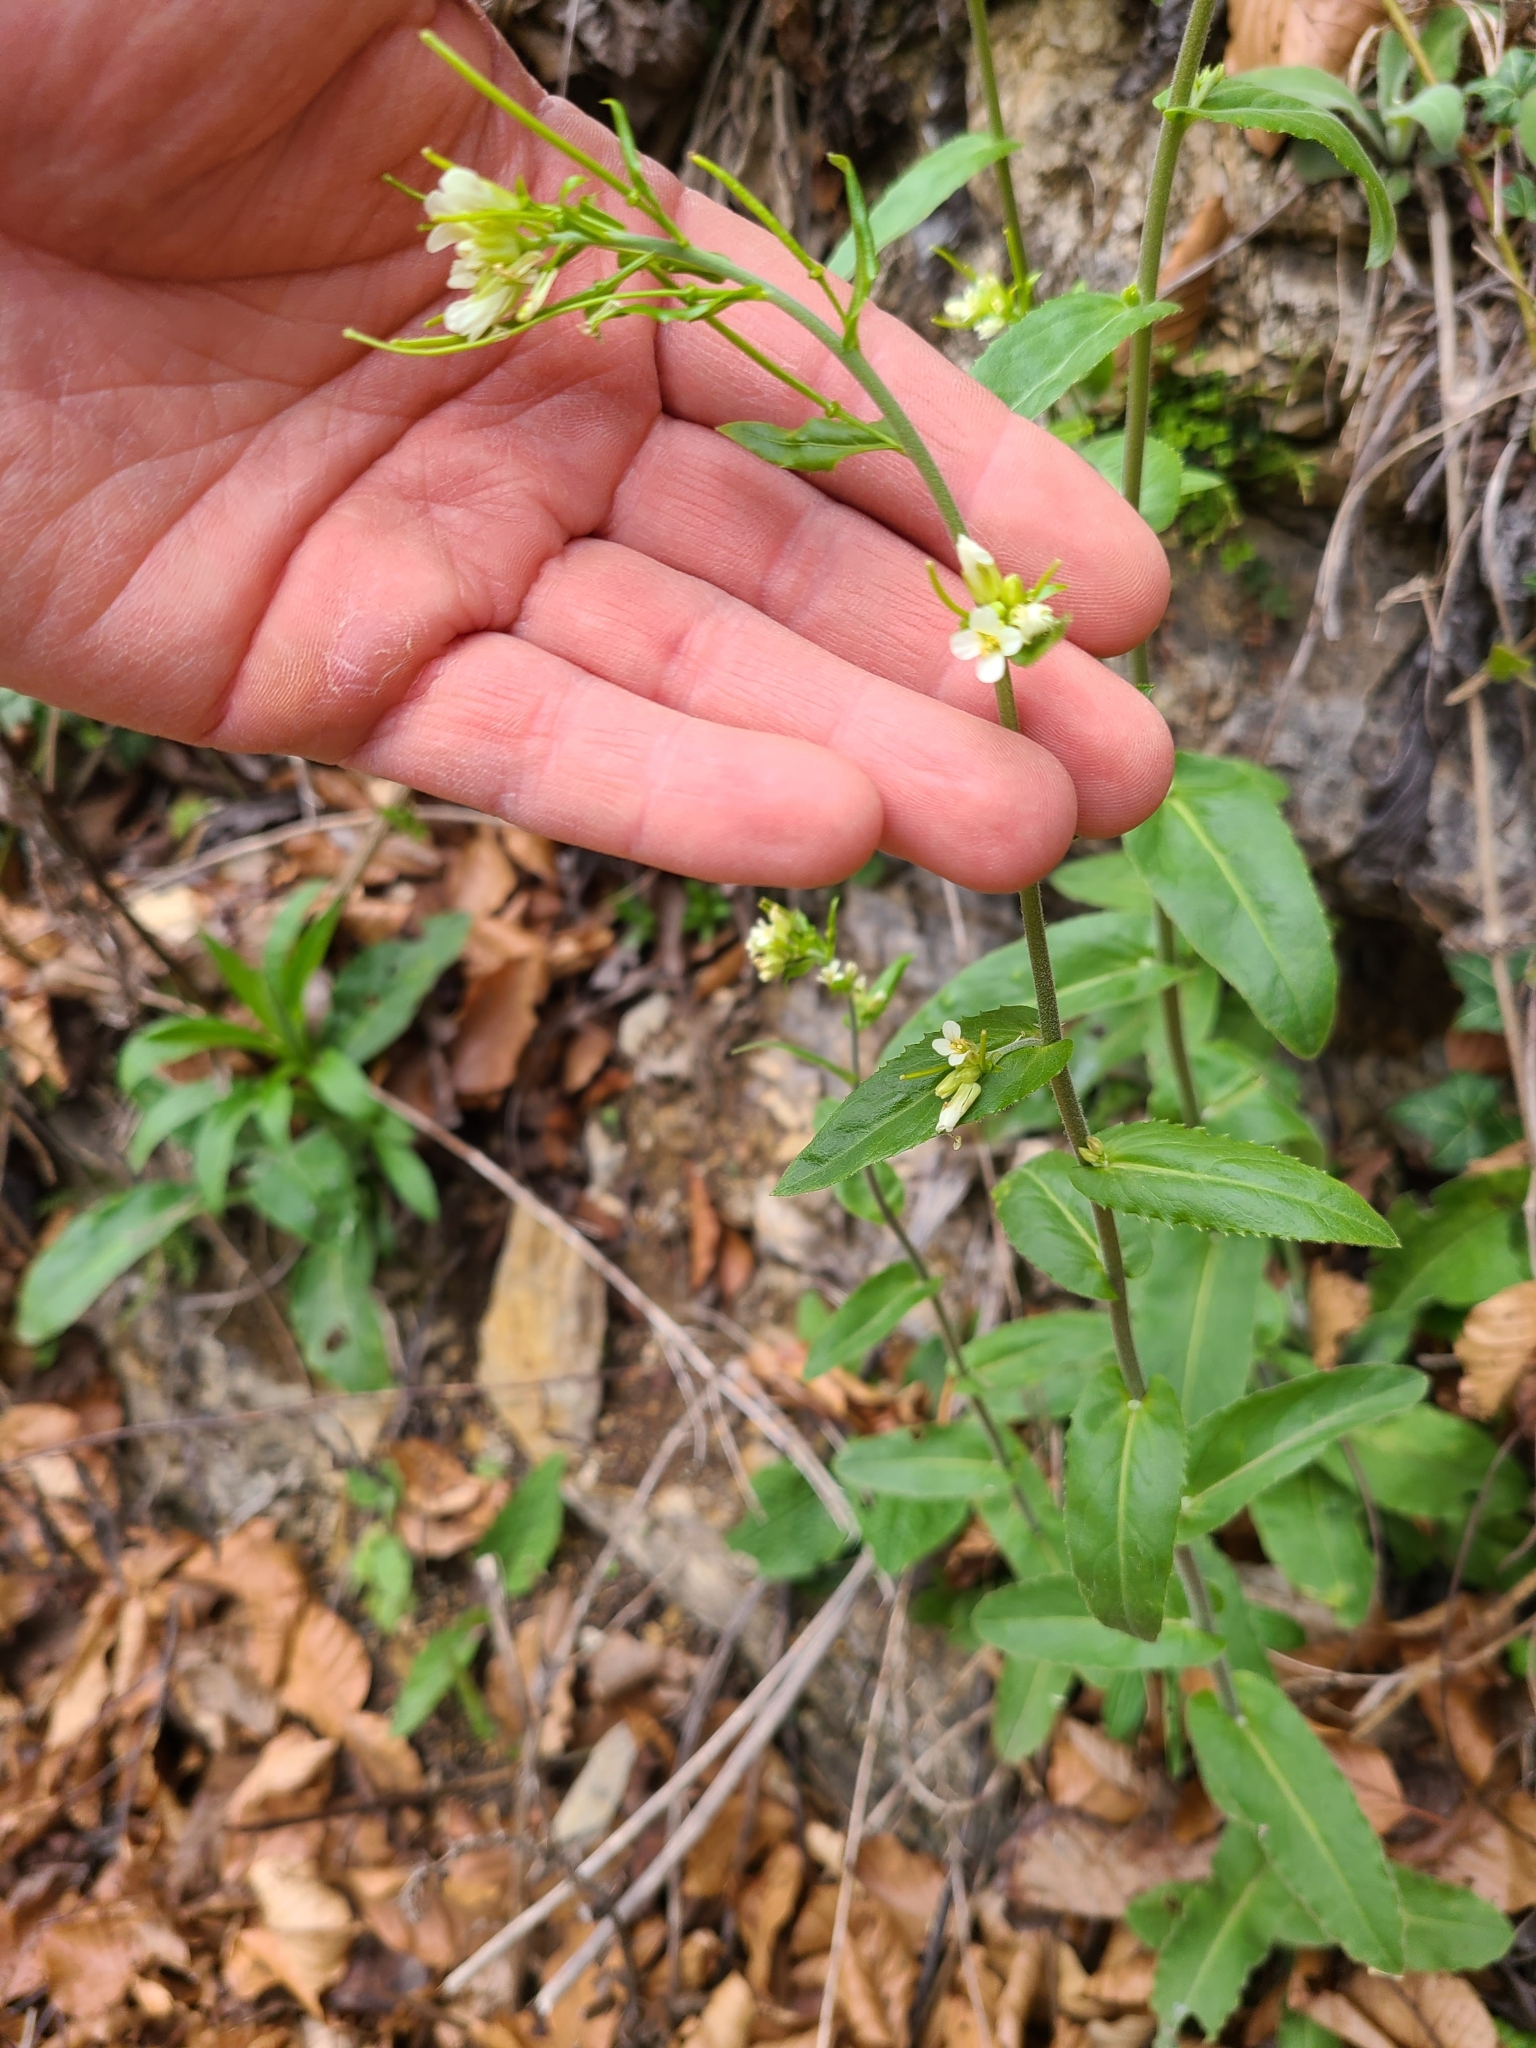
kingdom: Plantae
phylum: Tracheophyta
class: Magnoliopsida
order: Brassicales
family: Brassicaceae
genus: Pseudoturritis
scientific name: Pseudoturritis turrita
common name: Tower cress
